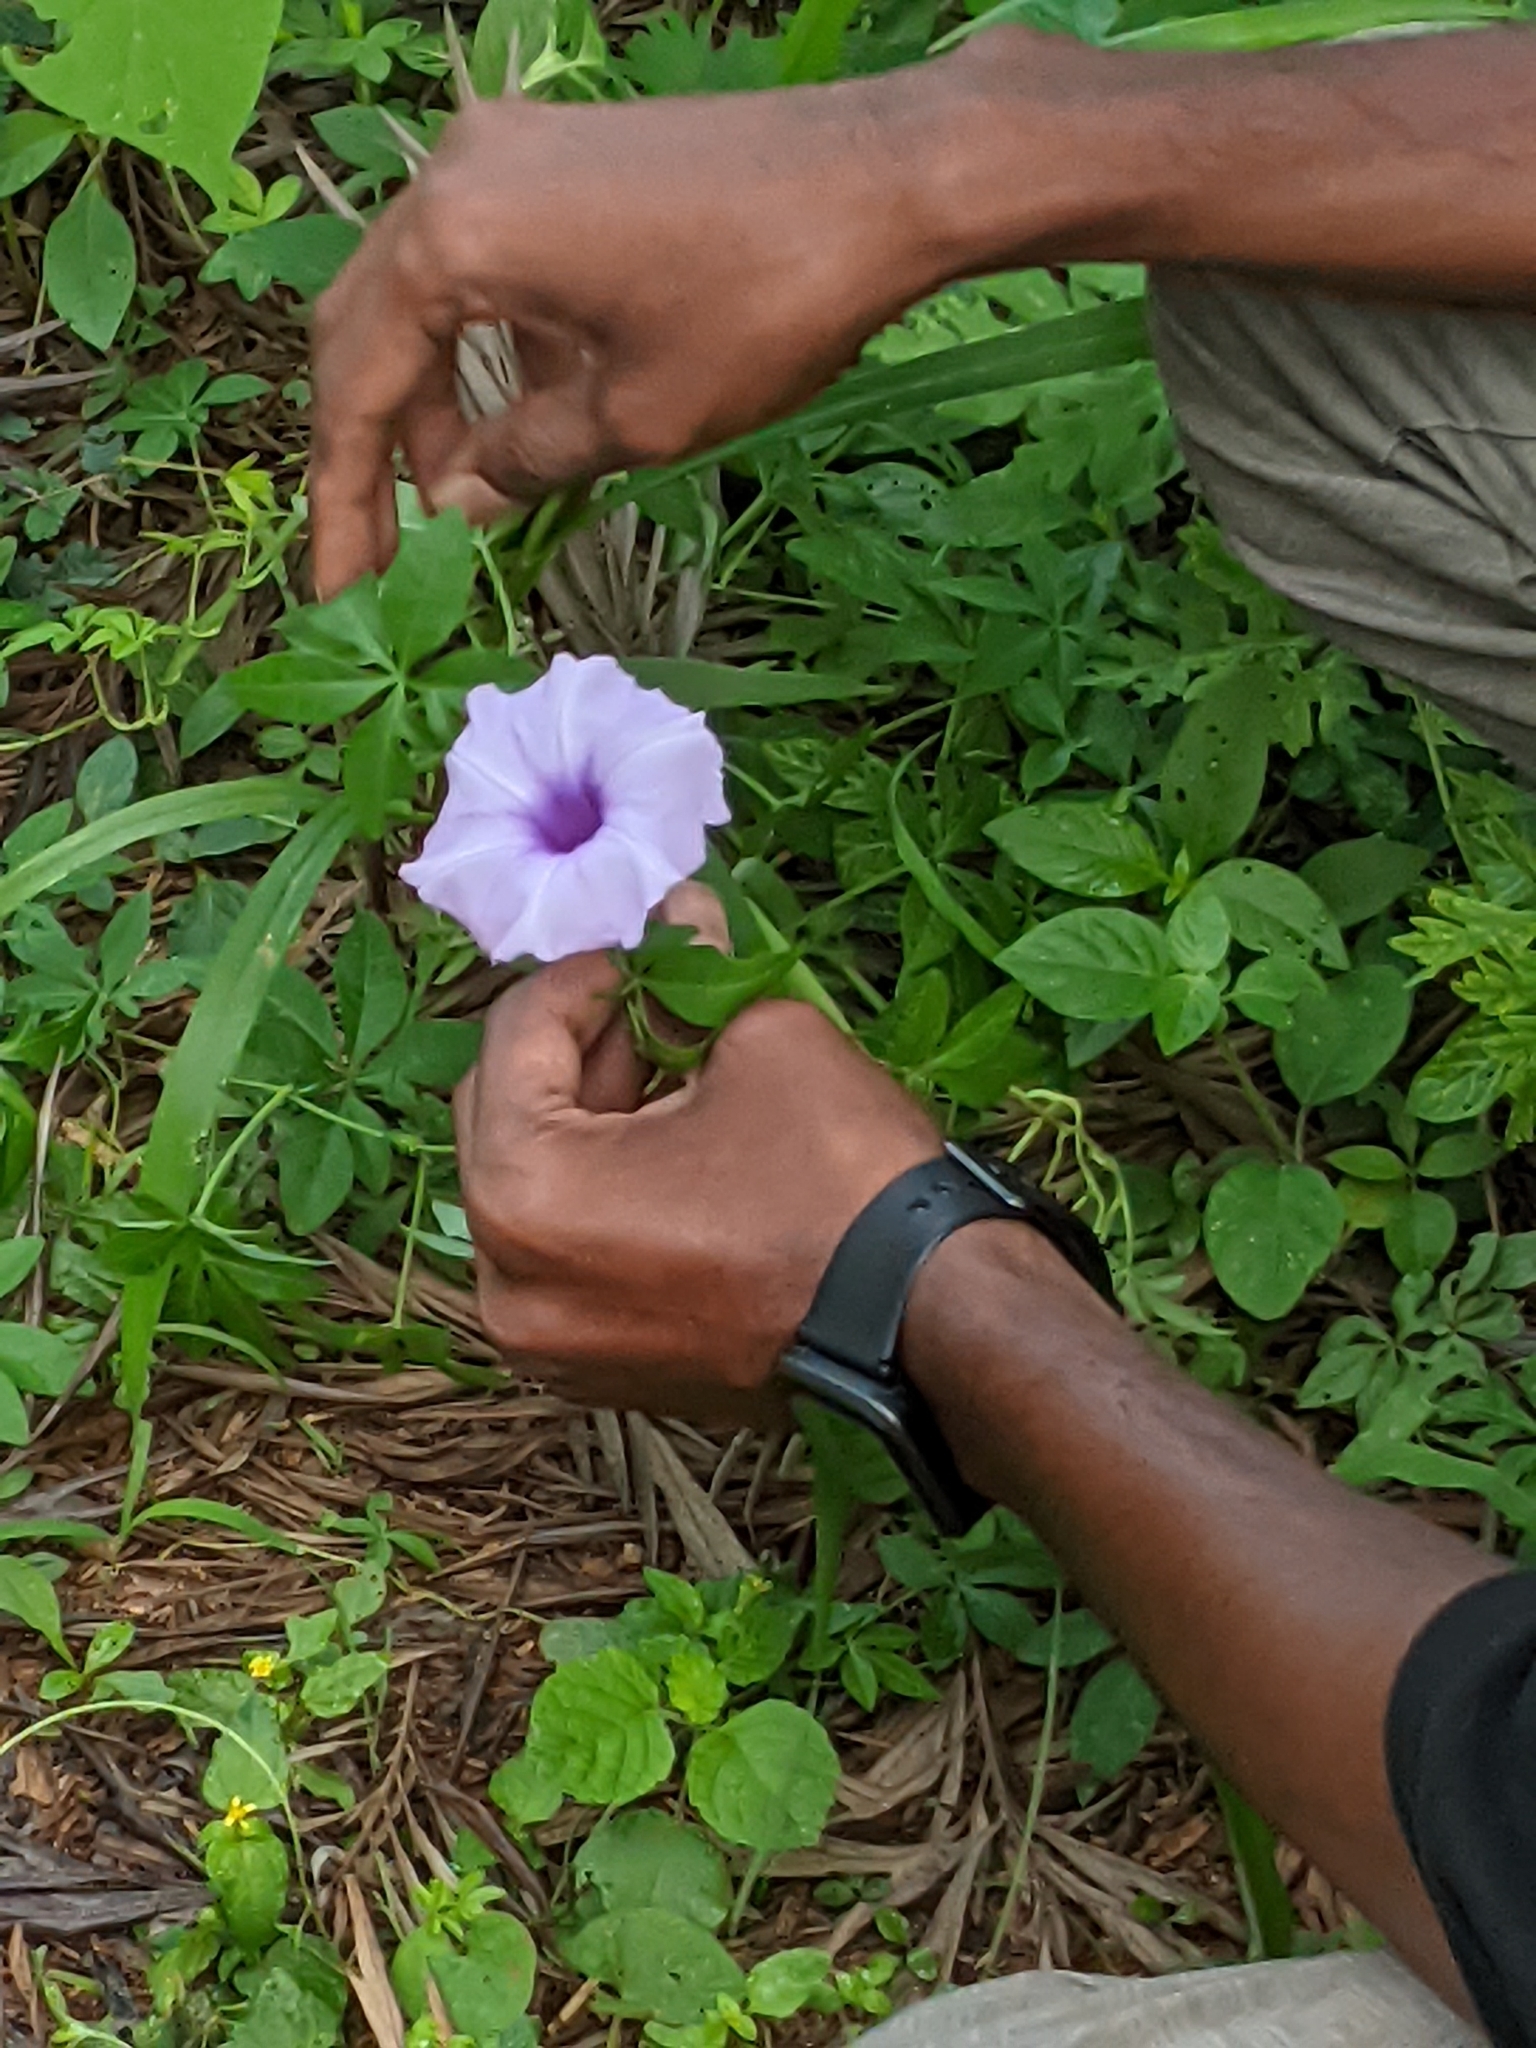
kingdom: Plantae
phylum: Tracheophyta
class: Magnoliopsida
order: Solanales
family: Convolvulaceae
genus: Ipomoea
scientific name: Ipomoea cairica
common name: Mile a minute vine
